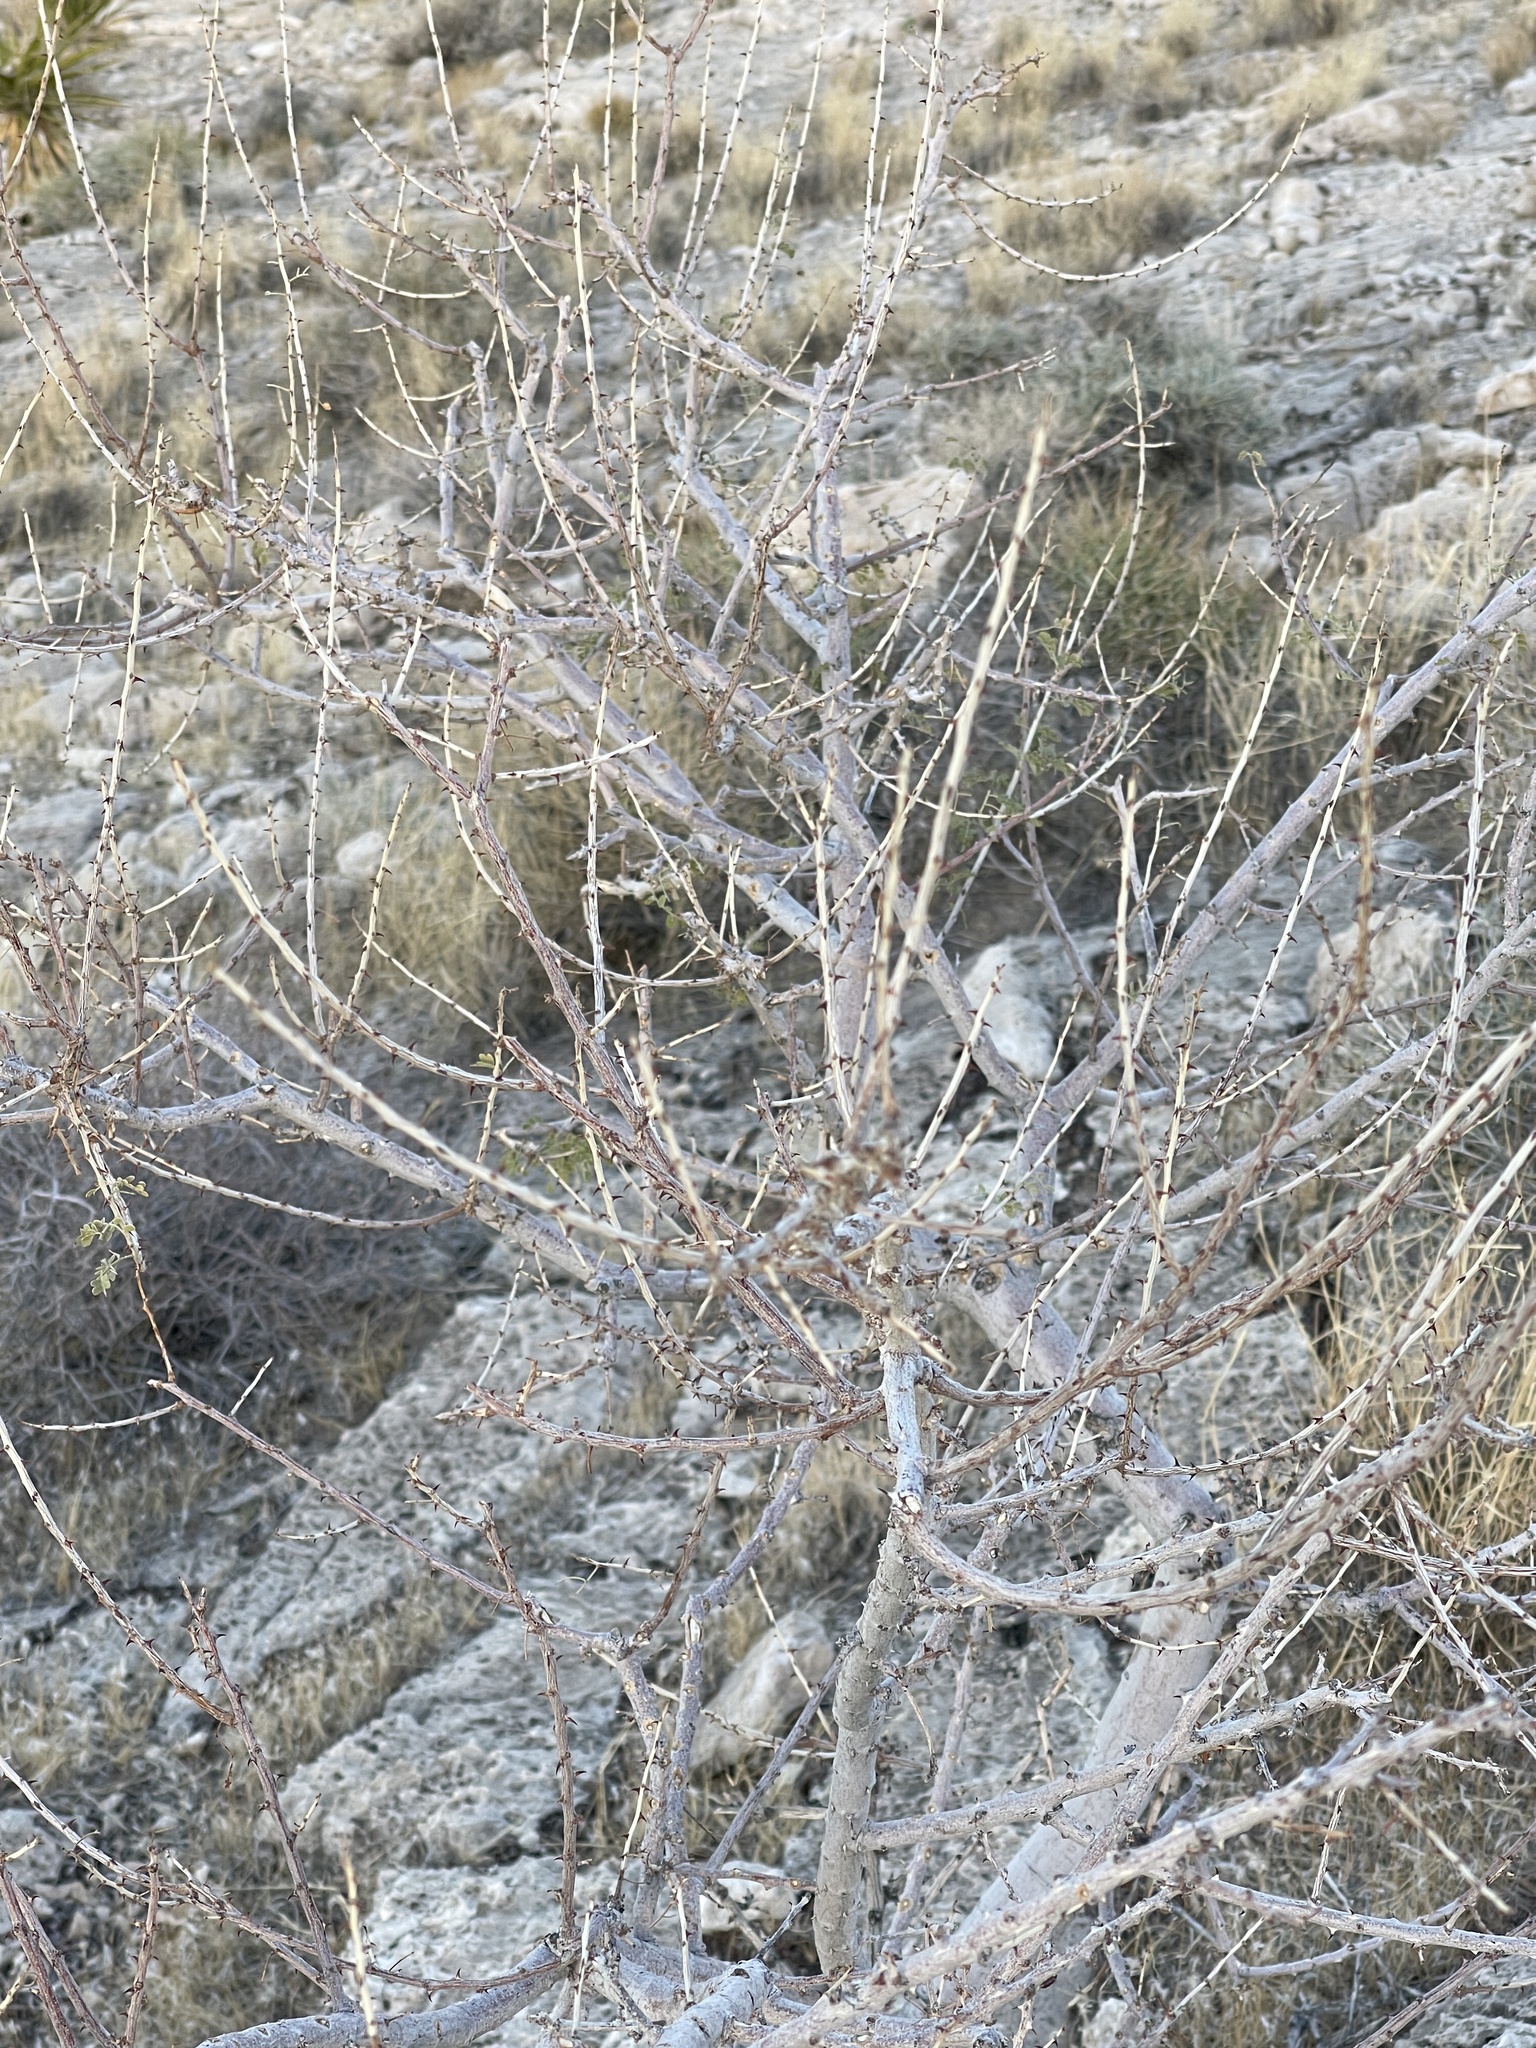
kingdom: Plantae
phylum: Tracheophyta
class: Magnoliopsida
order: Fabales
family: Fabaceae
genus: Senegalia
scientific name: Senegalia greggii
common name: Texas-mimosa
